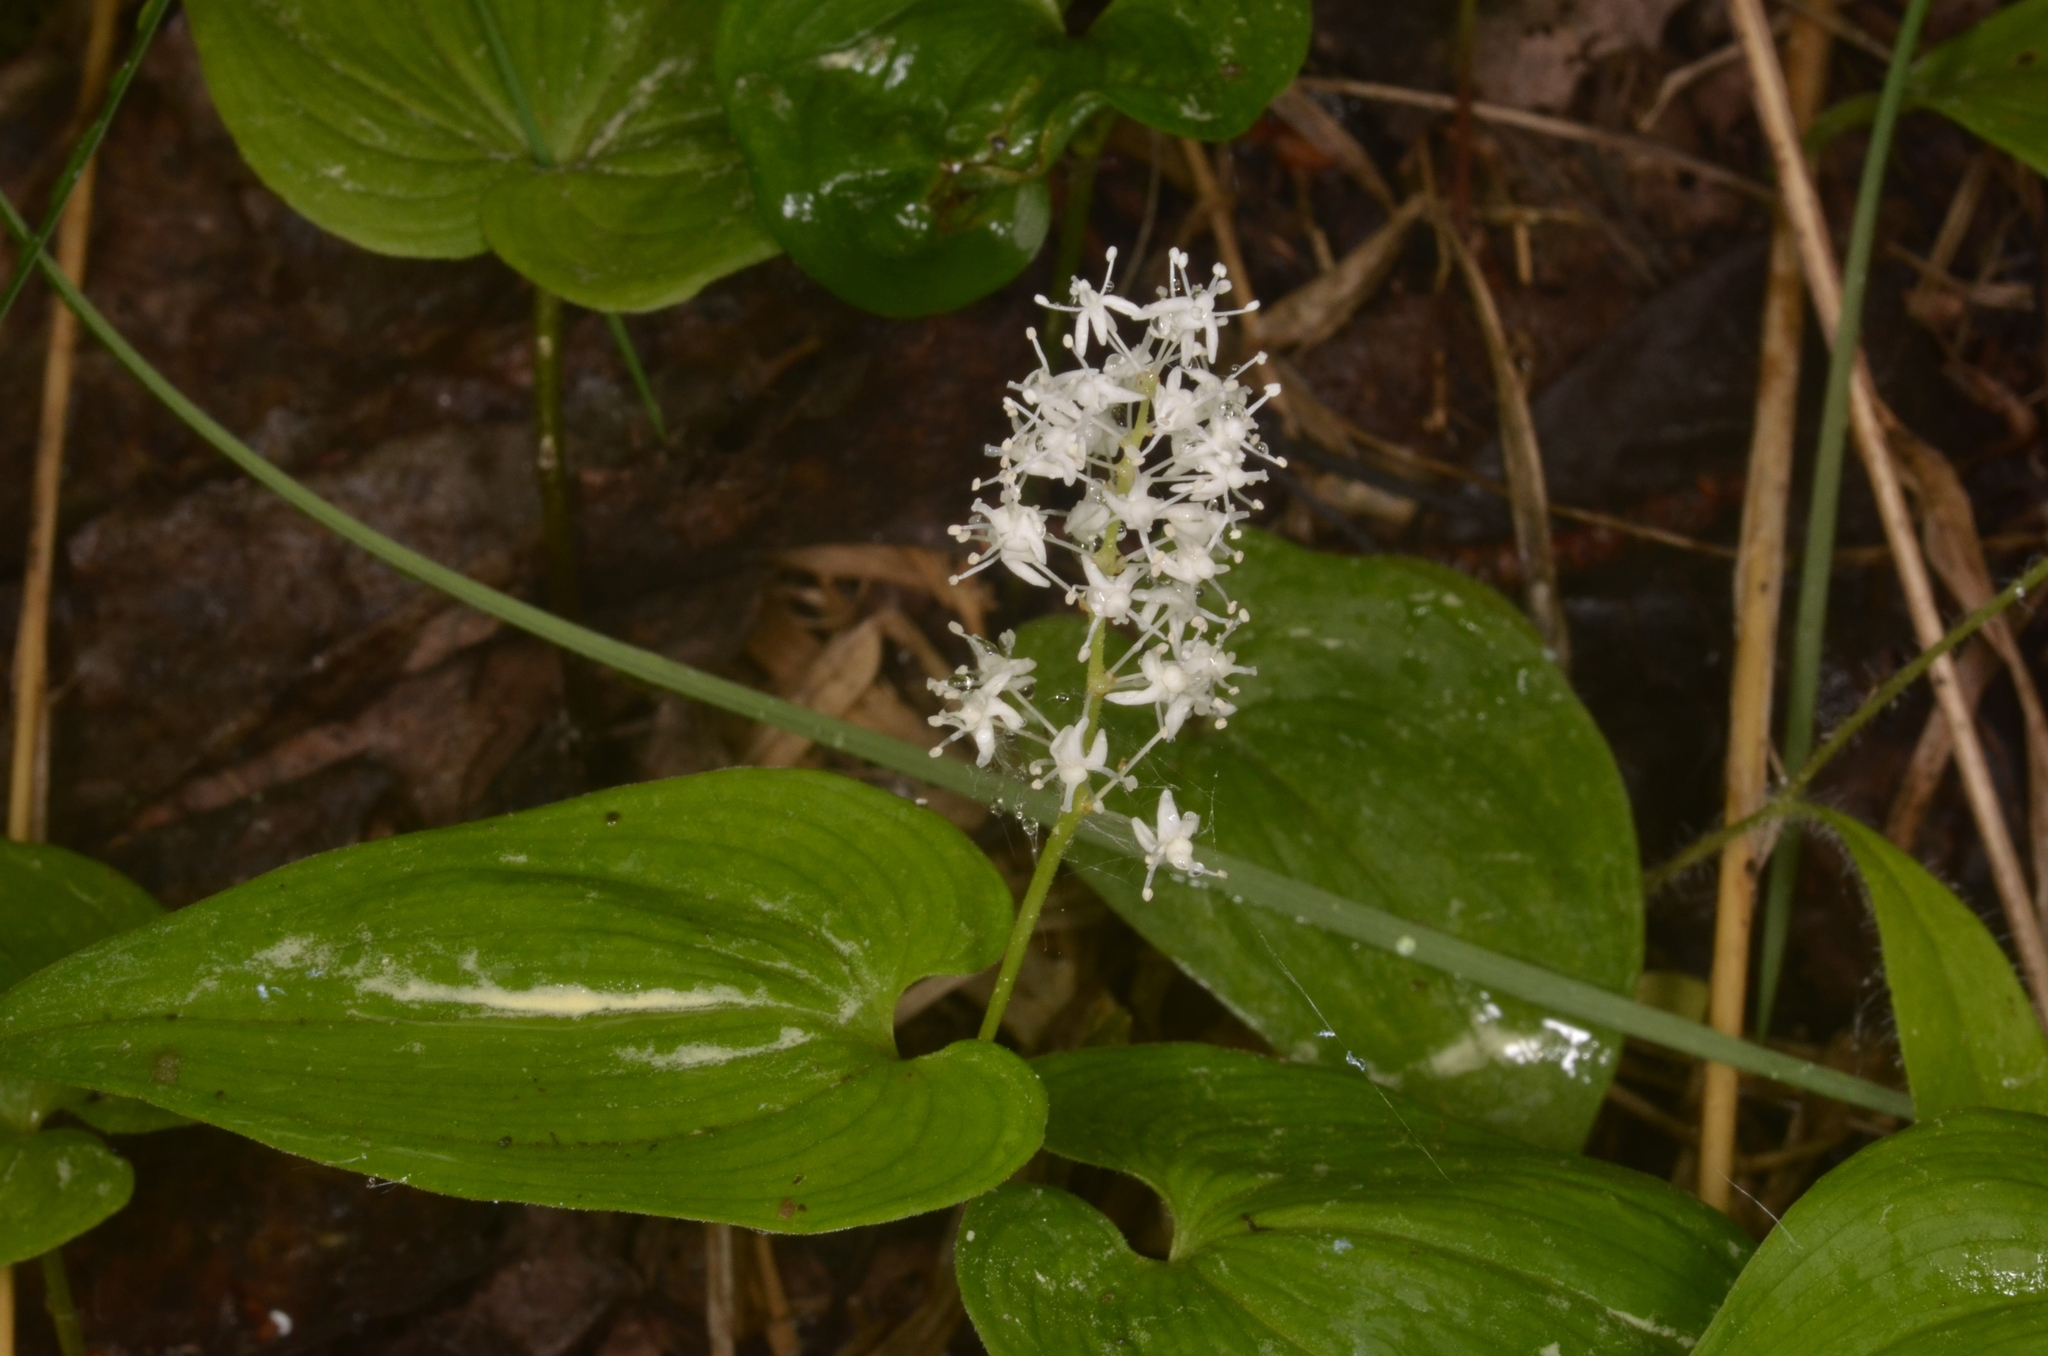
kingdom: Plantae
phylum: Tracheophyta
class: Liliopsida
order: Asparagales
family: Asparagaceae
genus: Maianthemum
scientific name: Maianthemum bifolium
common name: May lily
